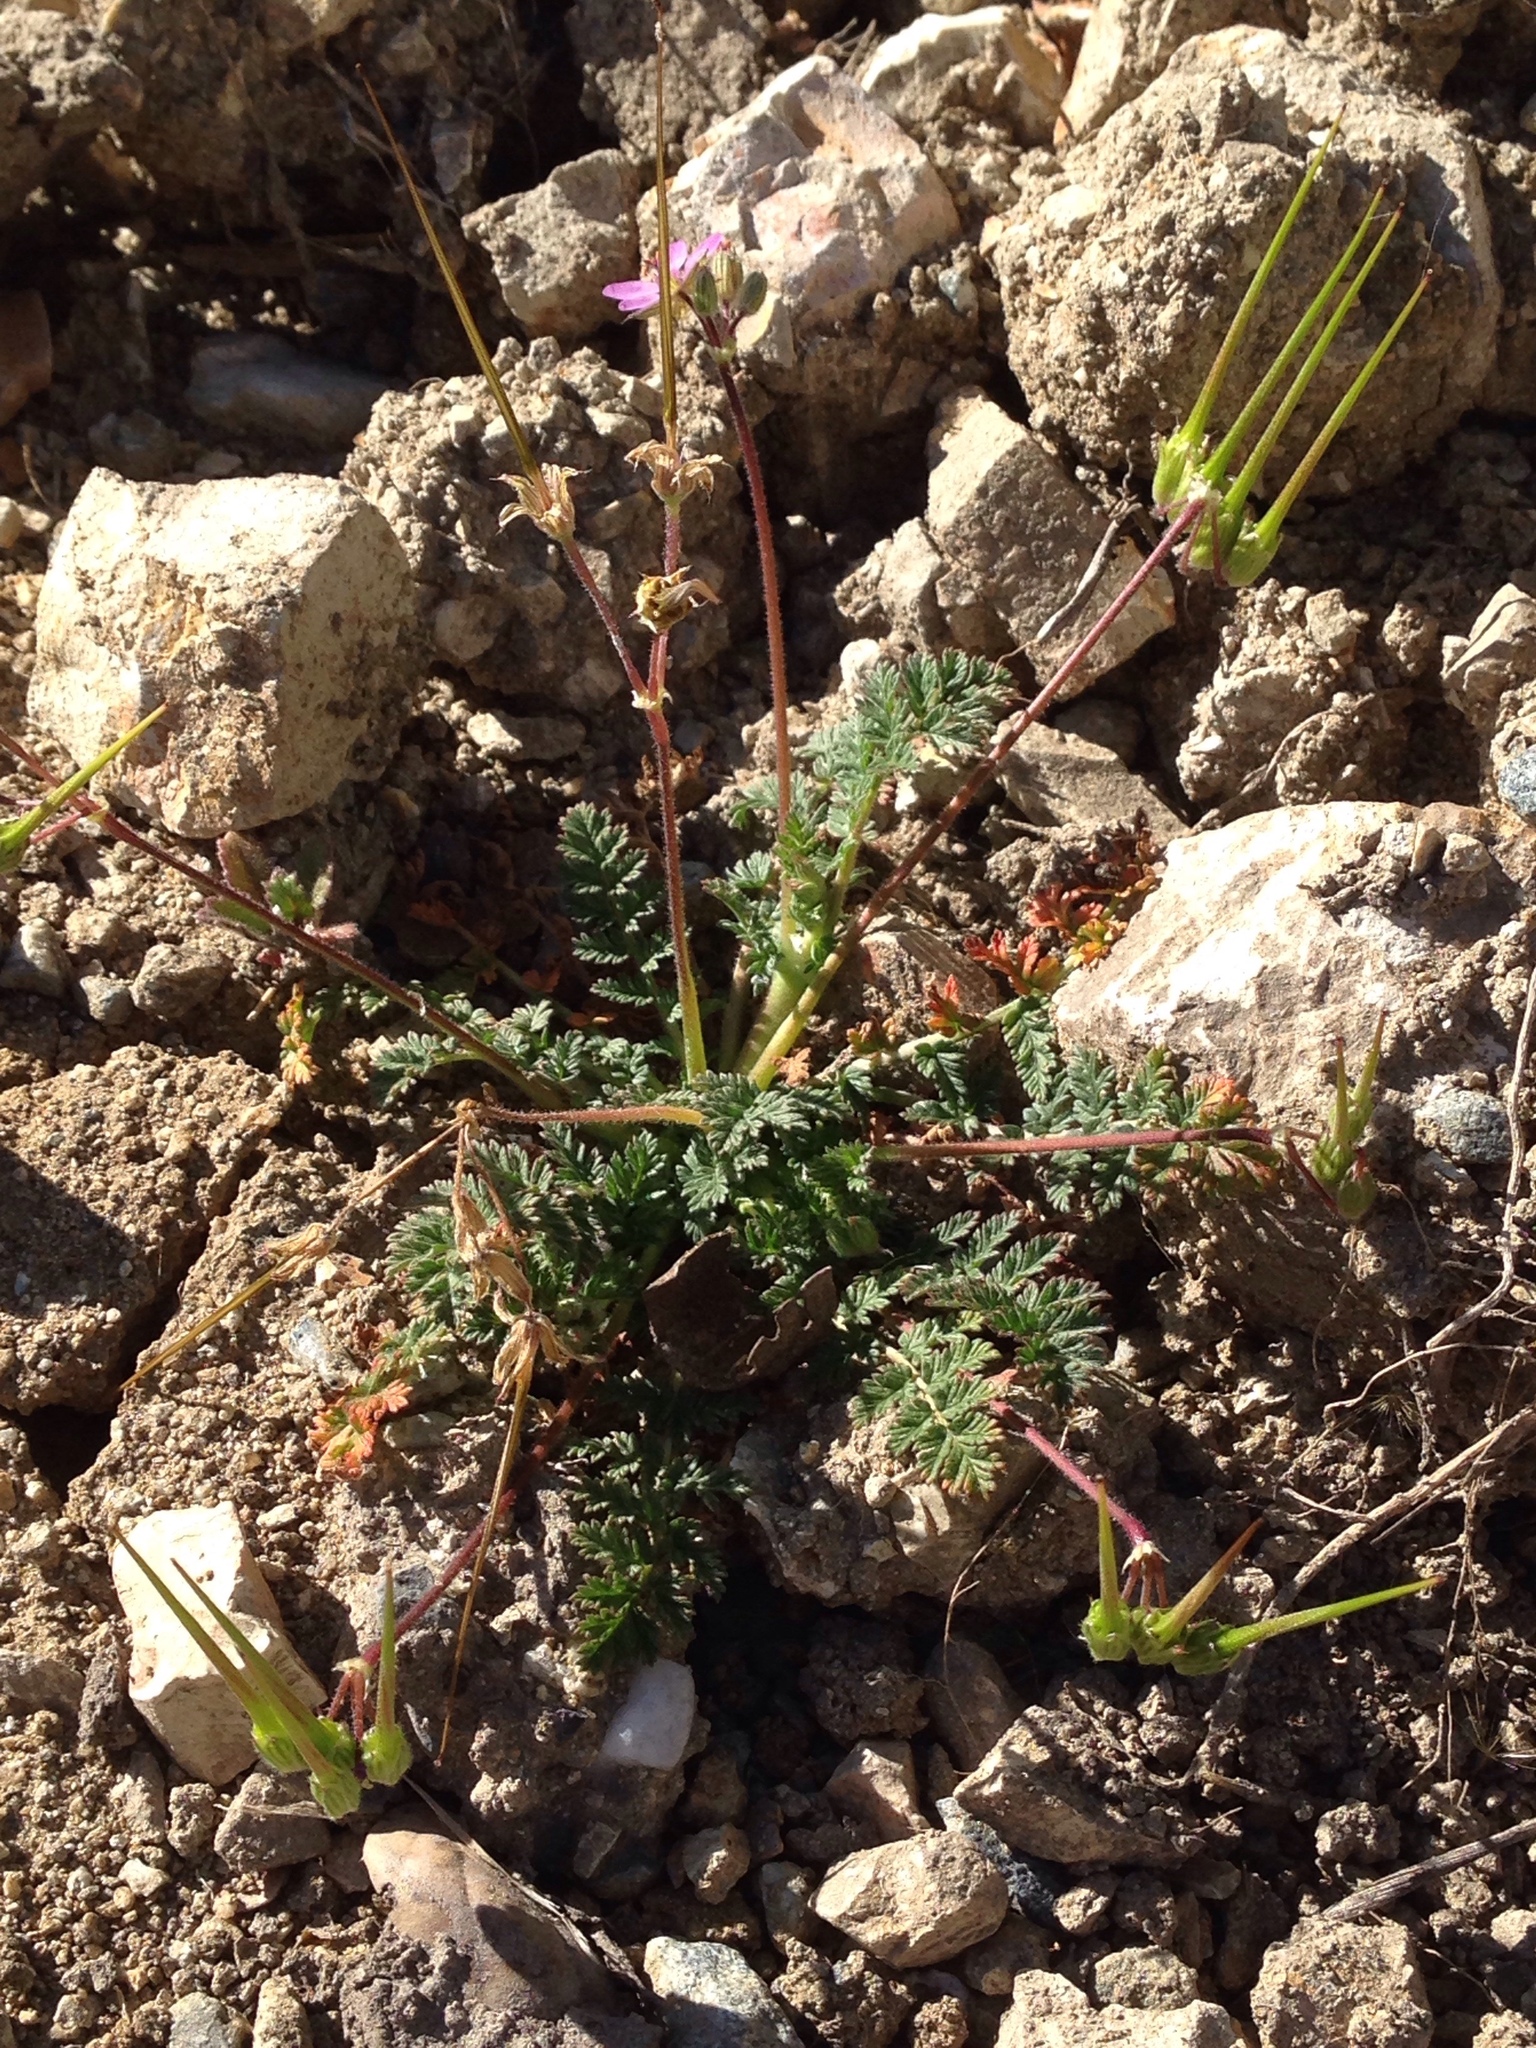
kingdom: Plantae
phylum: Tracheophyta
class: Magnoliopsida
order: Geraniales
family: Geraniaceae
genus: Erodium
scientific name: Erodium cicutarium
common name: Common stork's-bill
